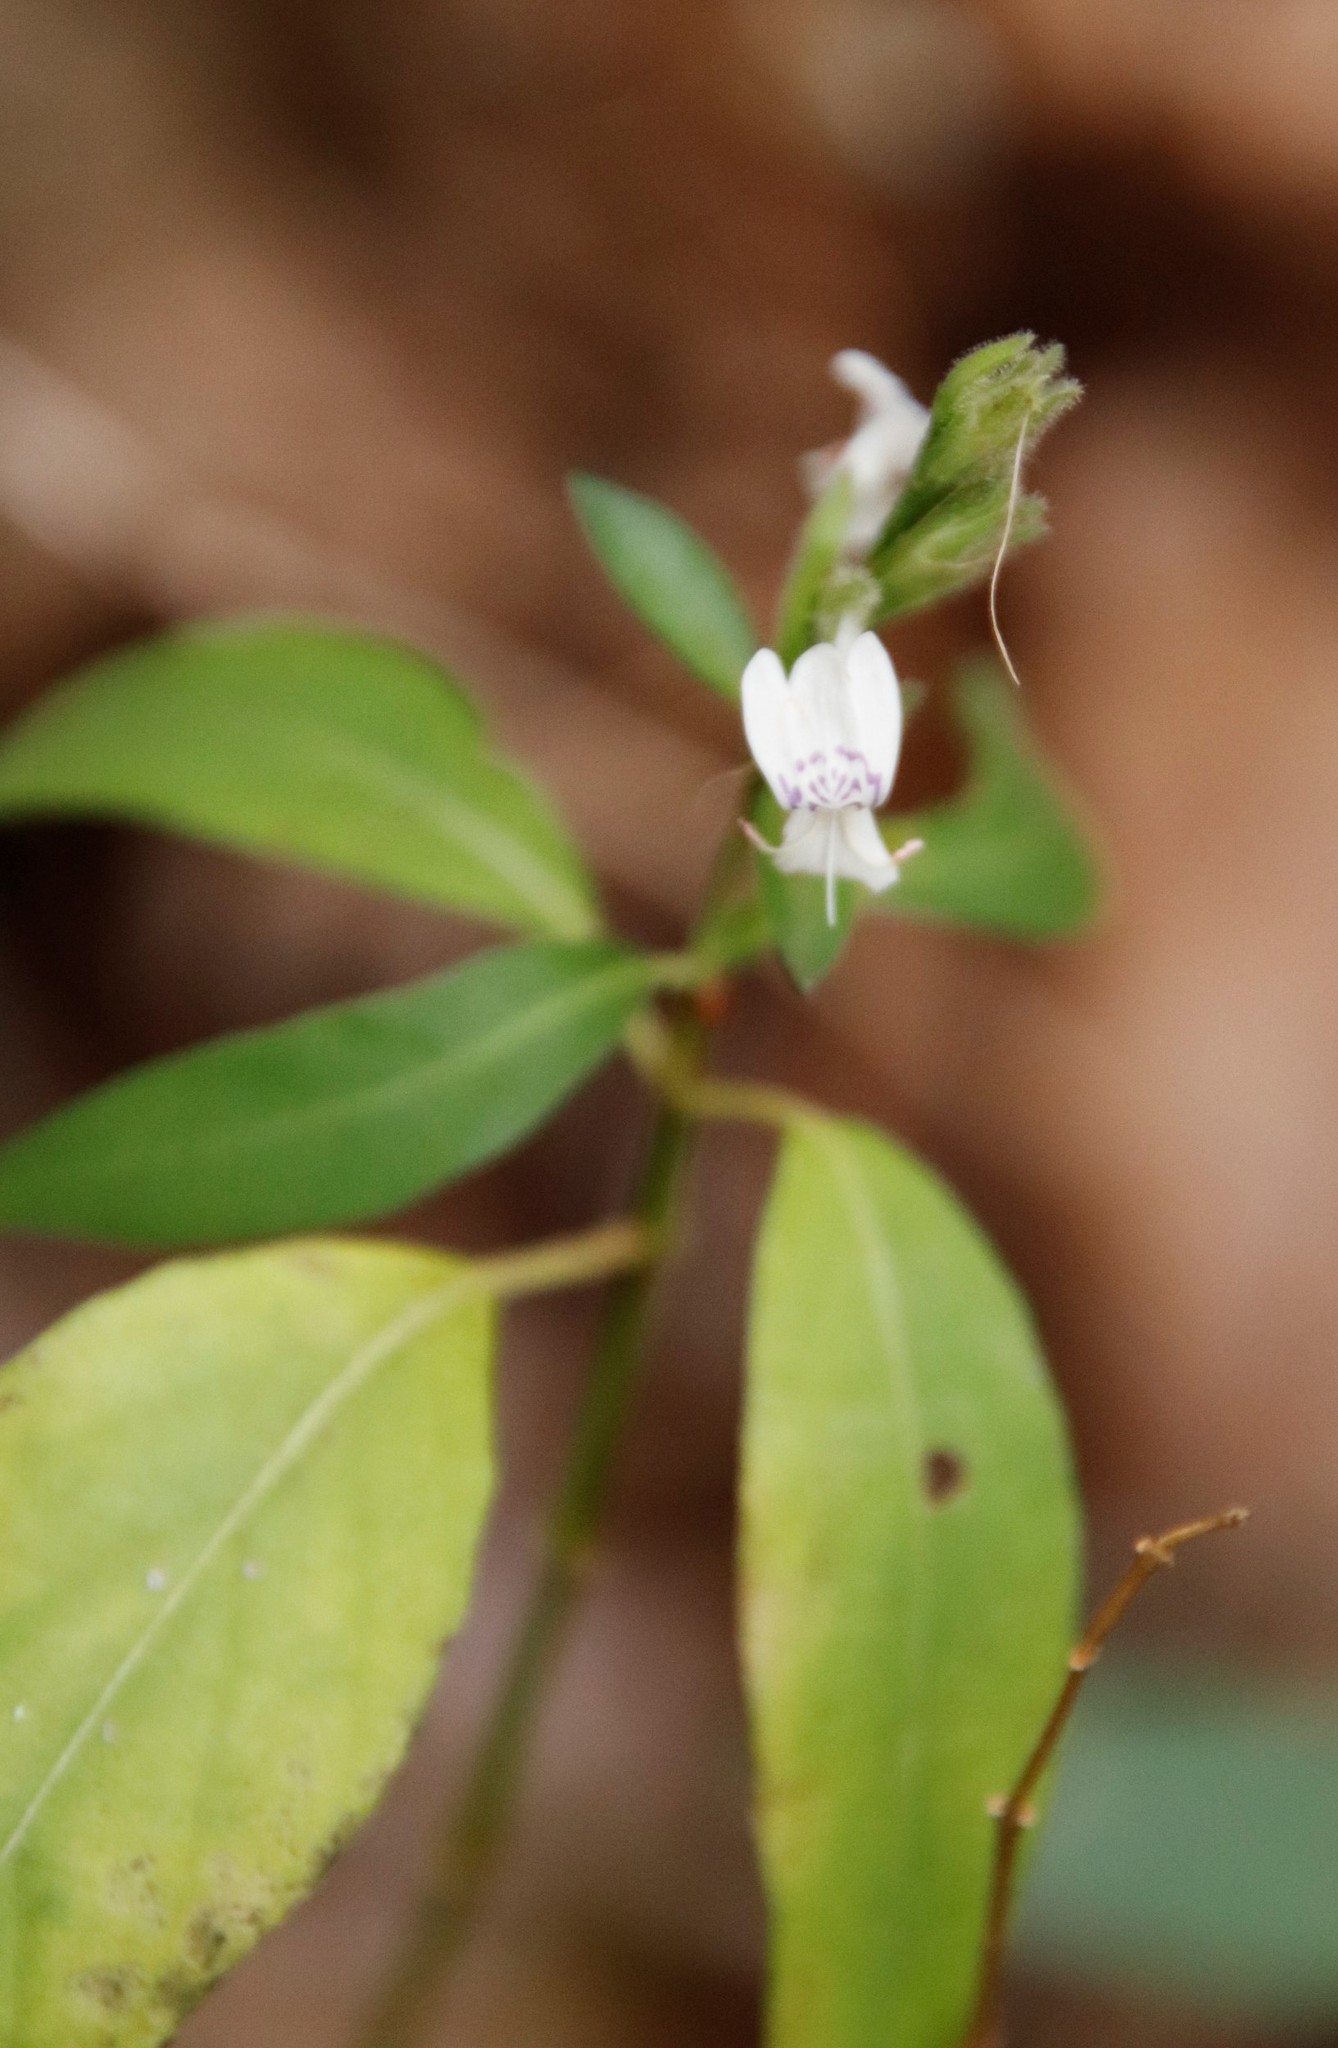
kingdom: Plantae
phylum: Tracheophyta
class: Magnoliopsida
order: Lamiales
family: Acanthaceae
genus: Hypoestes
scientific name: Hypoestes forskaolii
